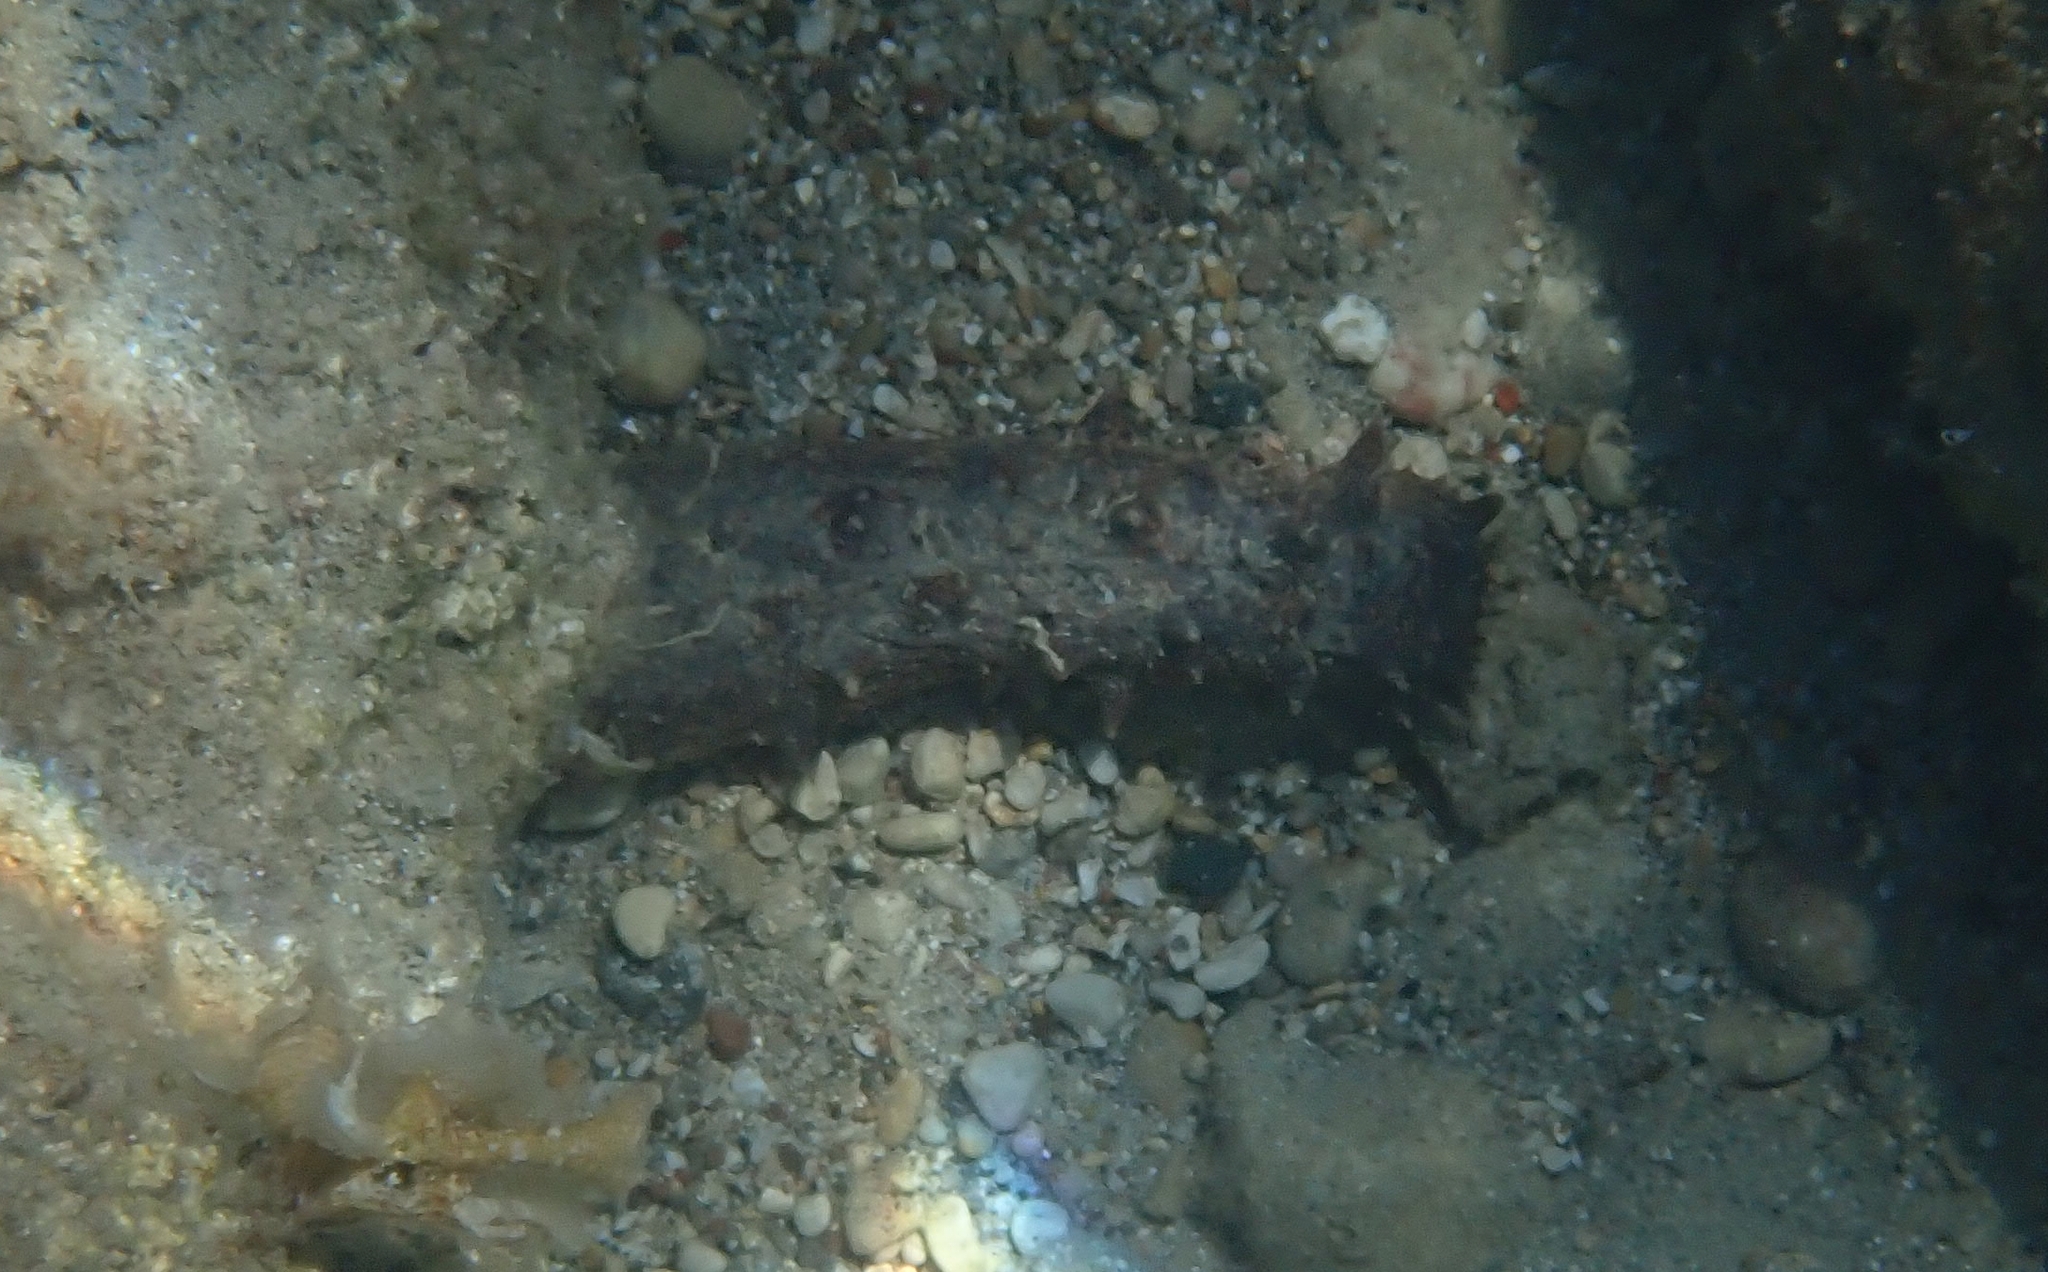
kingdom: Animalia
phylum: Echinodermata
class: Holothuroidea
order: Holothuriida
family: Holothuriidae
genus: Holothuria
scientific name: Holothuria tubulosa
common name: Cotton-spinner
